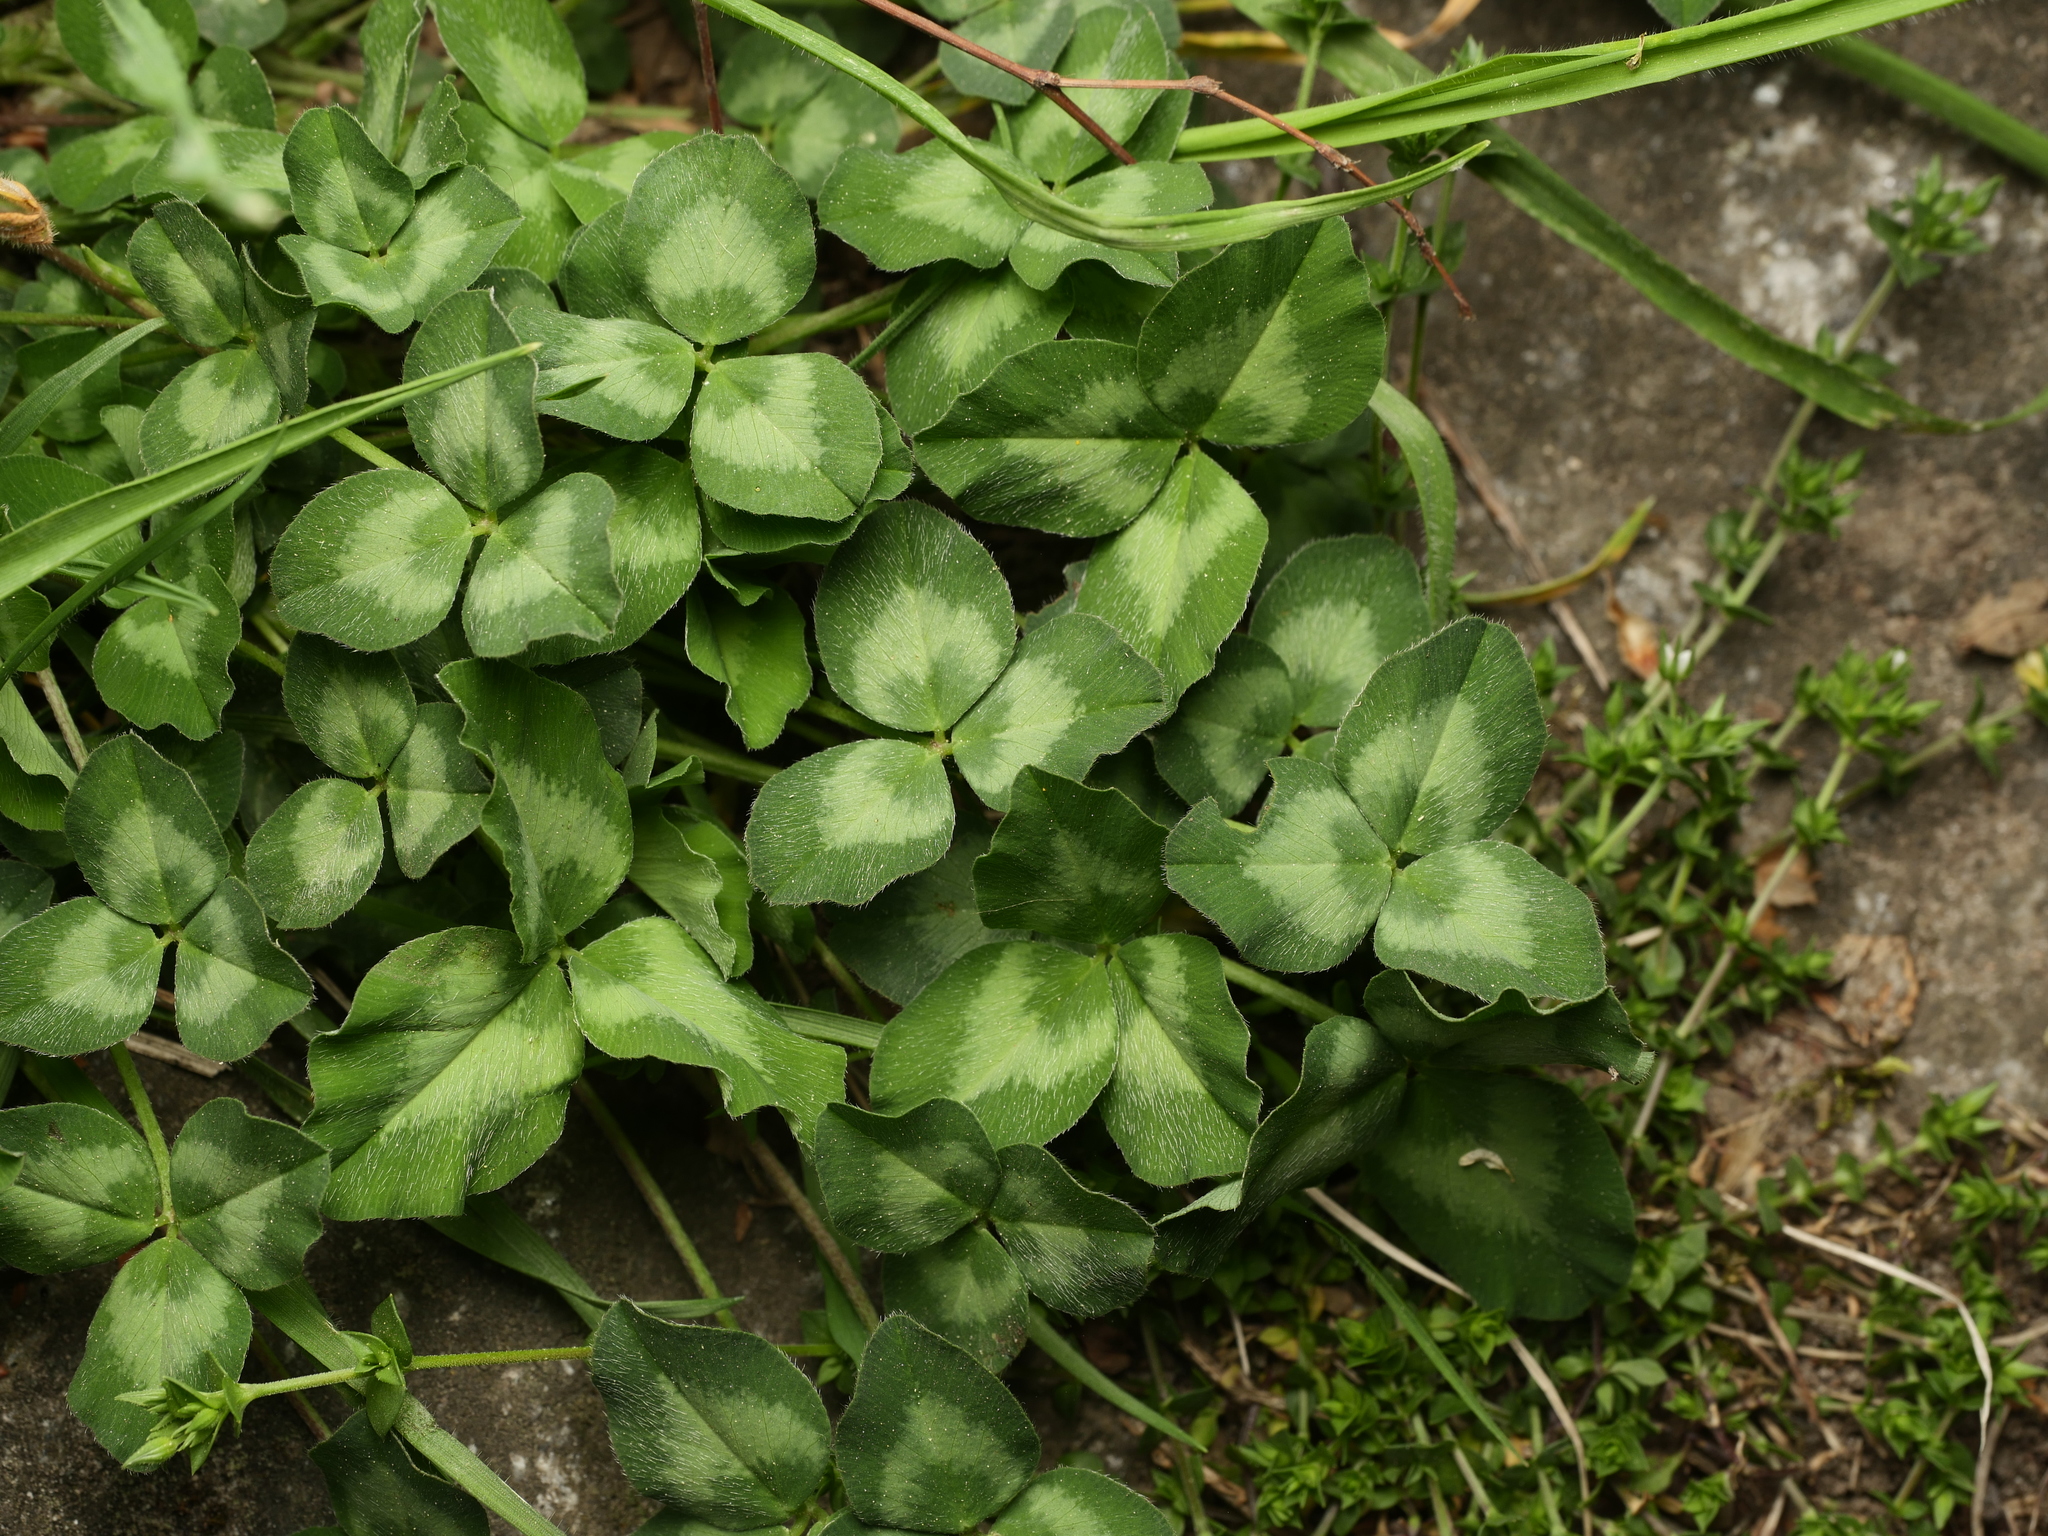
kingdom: Plantae
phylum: Tracheophyta
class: Magnoliopsida
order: Fabales
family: Fabaceae
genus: Trifolium
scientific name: Trifolium pratense
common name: Red clover
